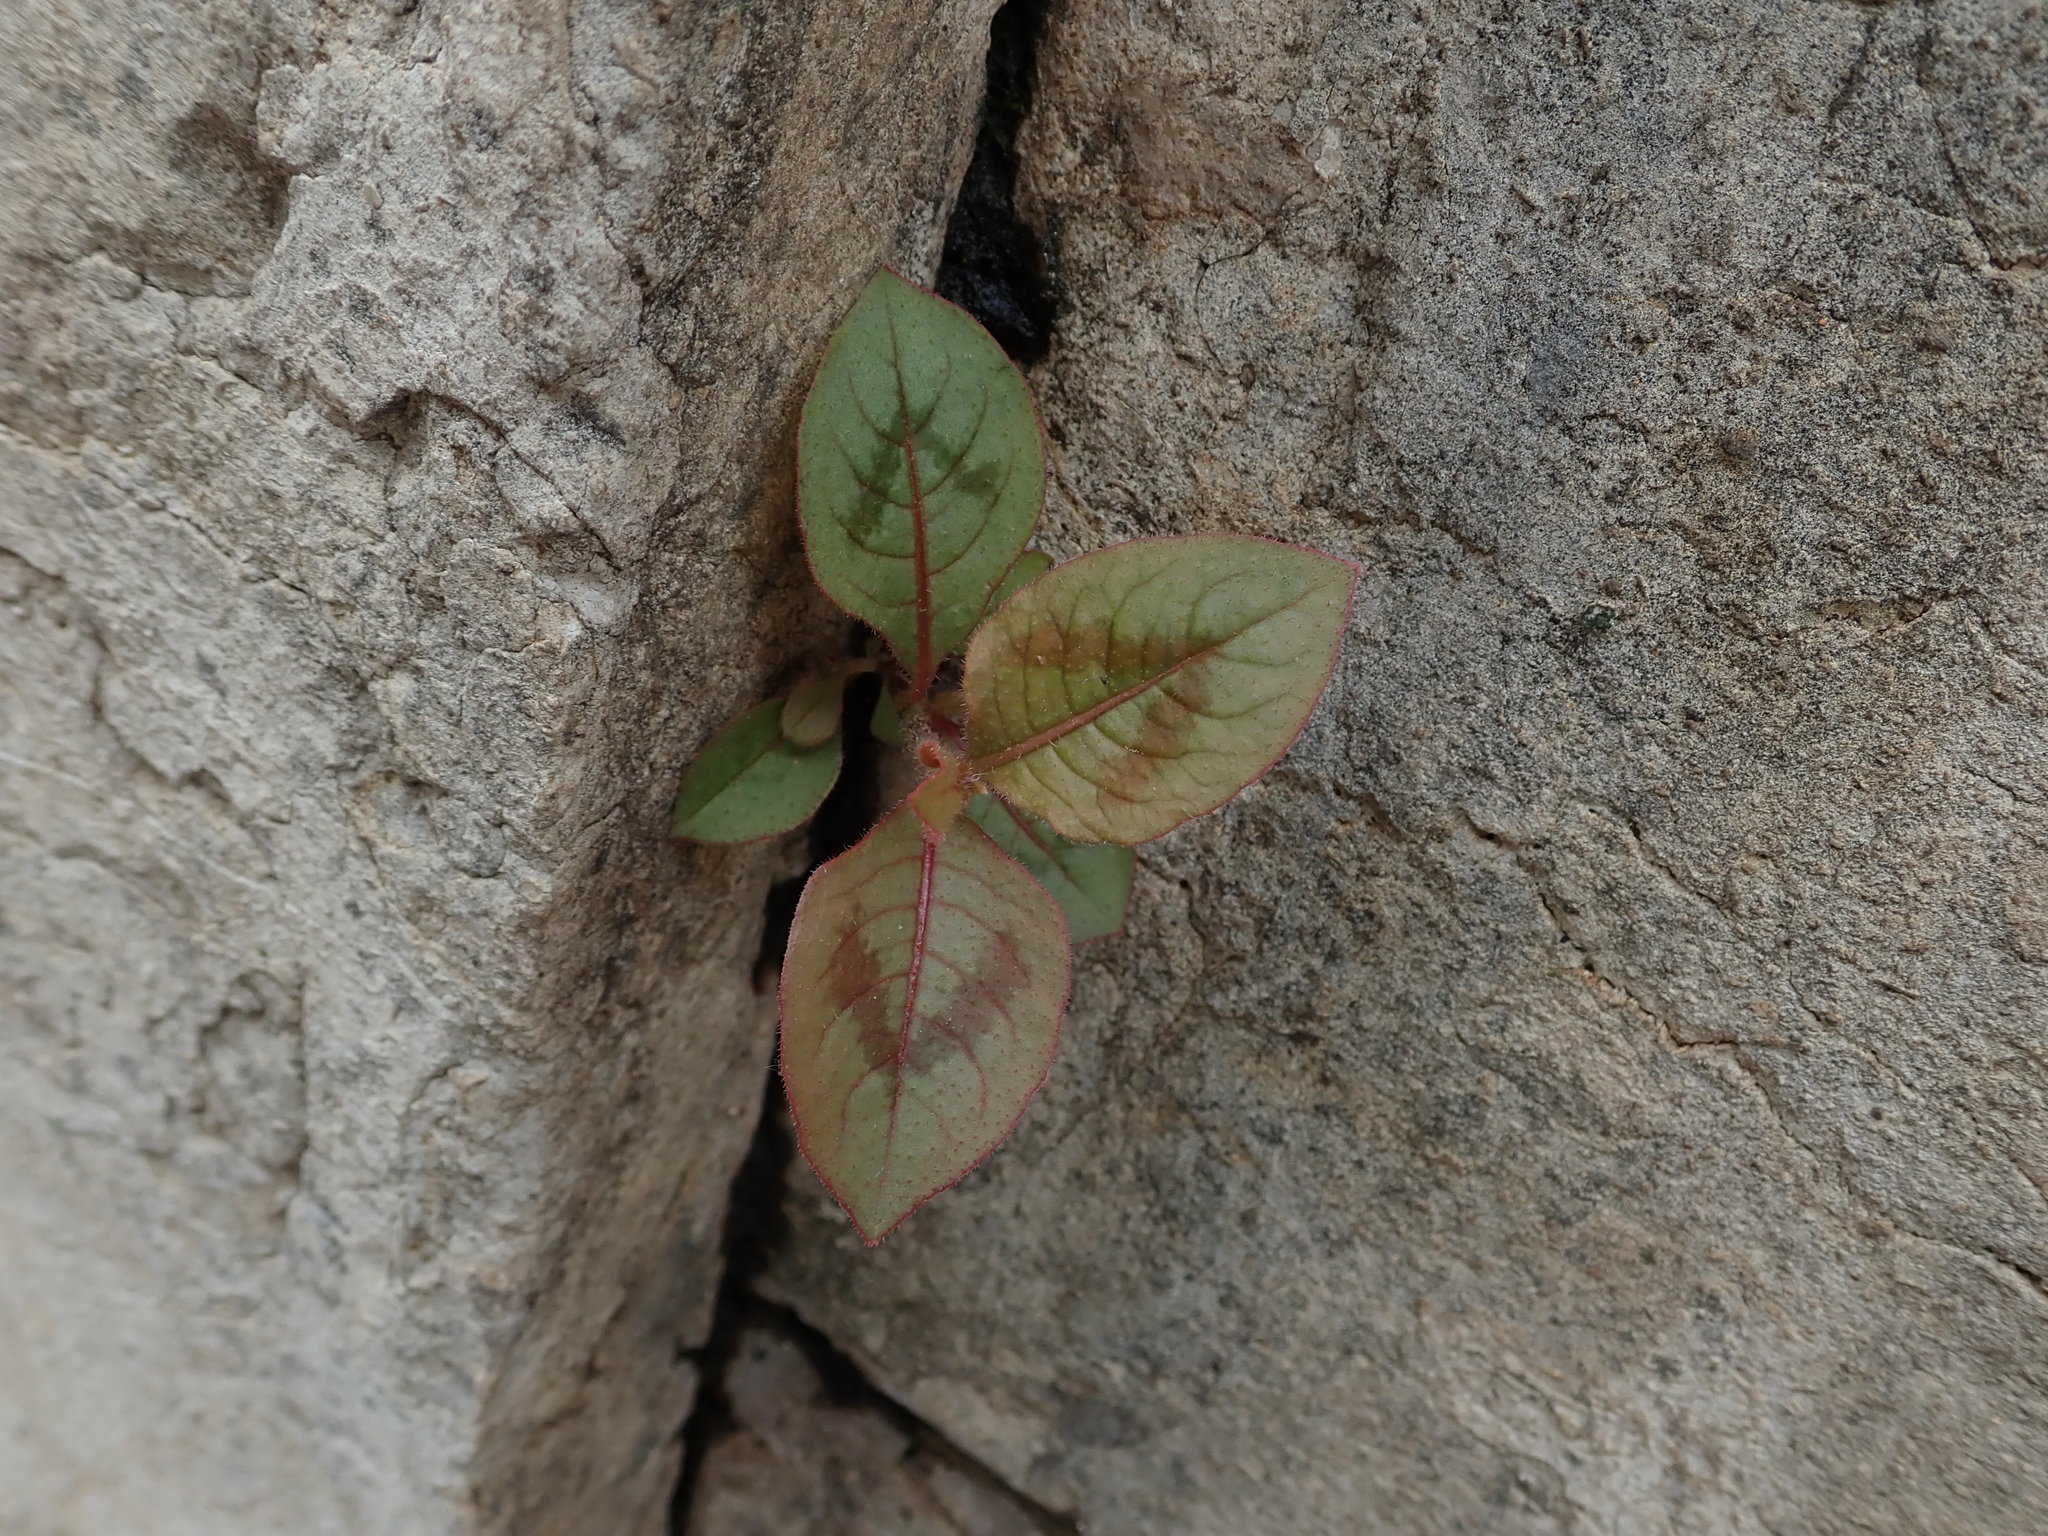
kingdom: Plantae
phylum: Tracheophyta
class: Magnoliopsida
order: Caryophyllales
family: Polygonaceae
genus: Persicaria
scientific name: Persicaria capitata
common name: Pinkhead smartweed
